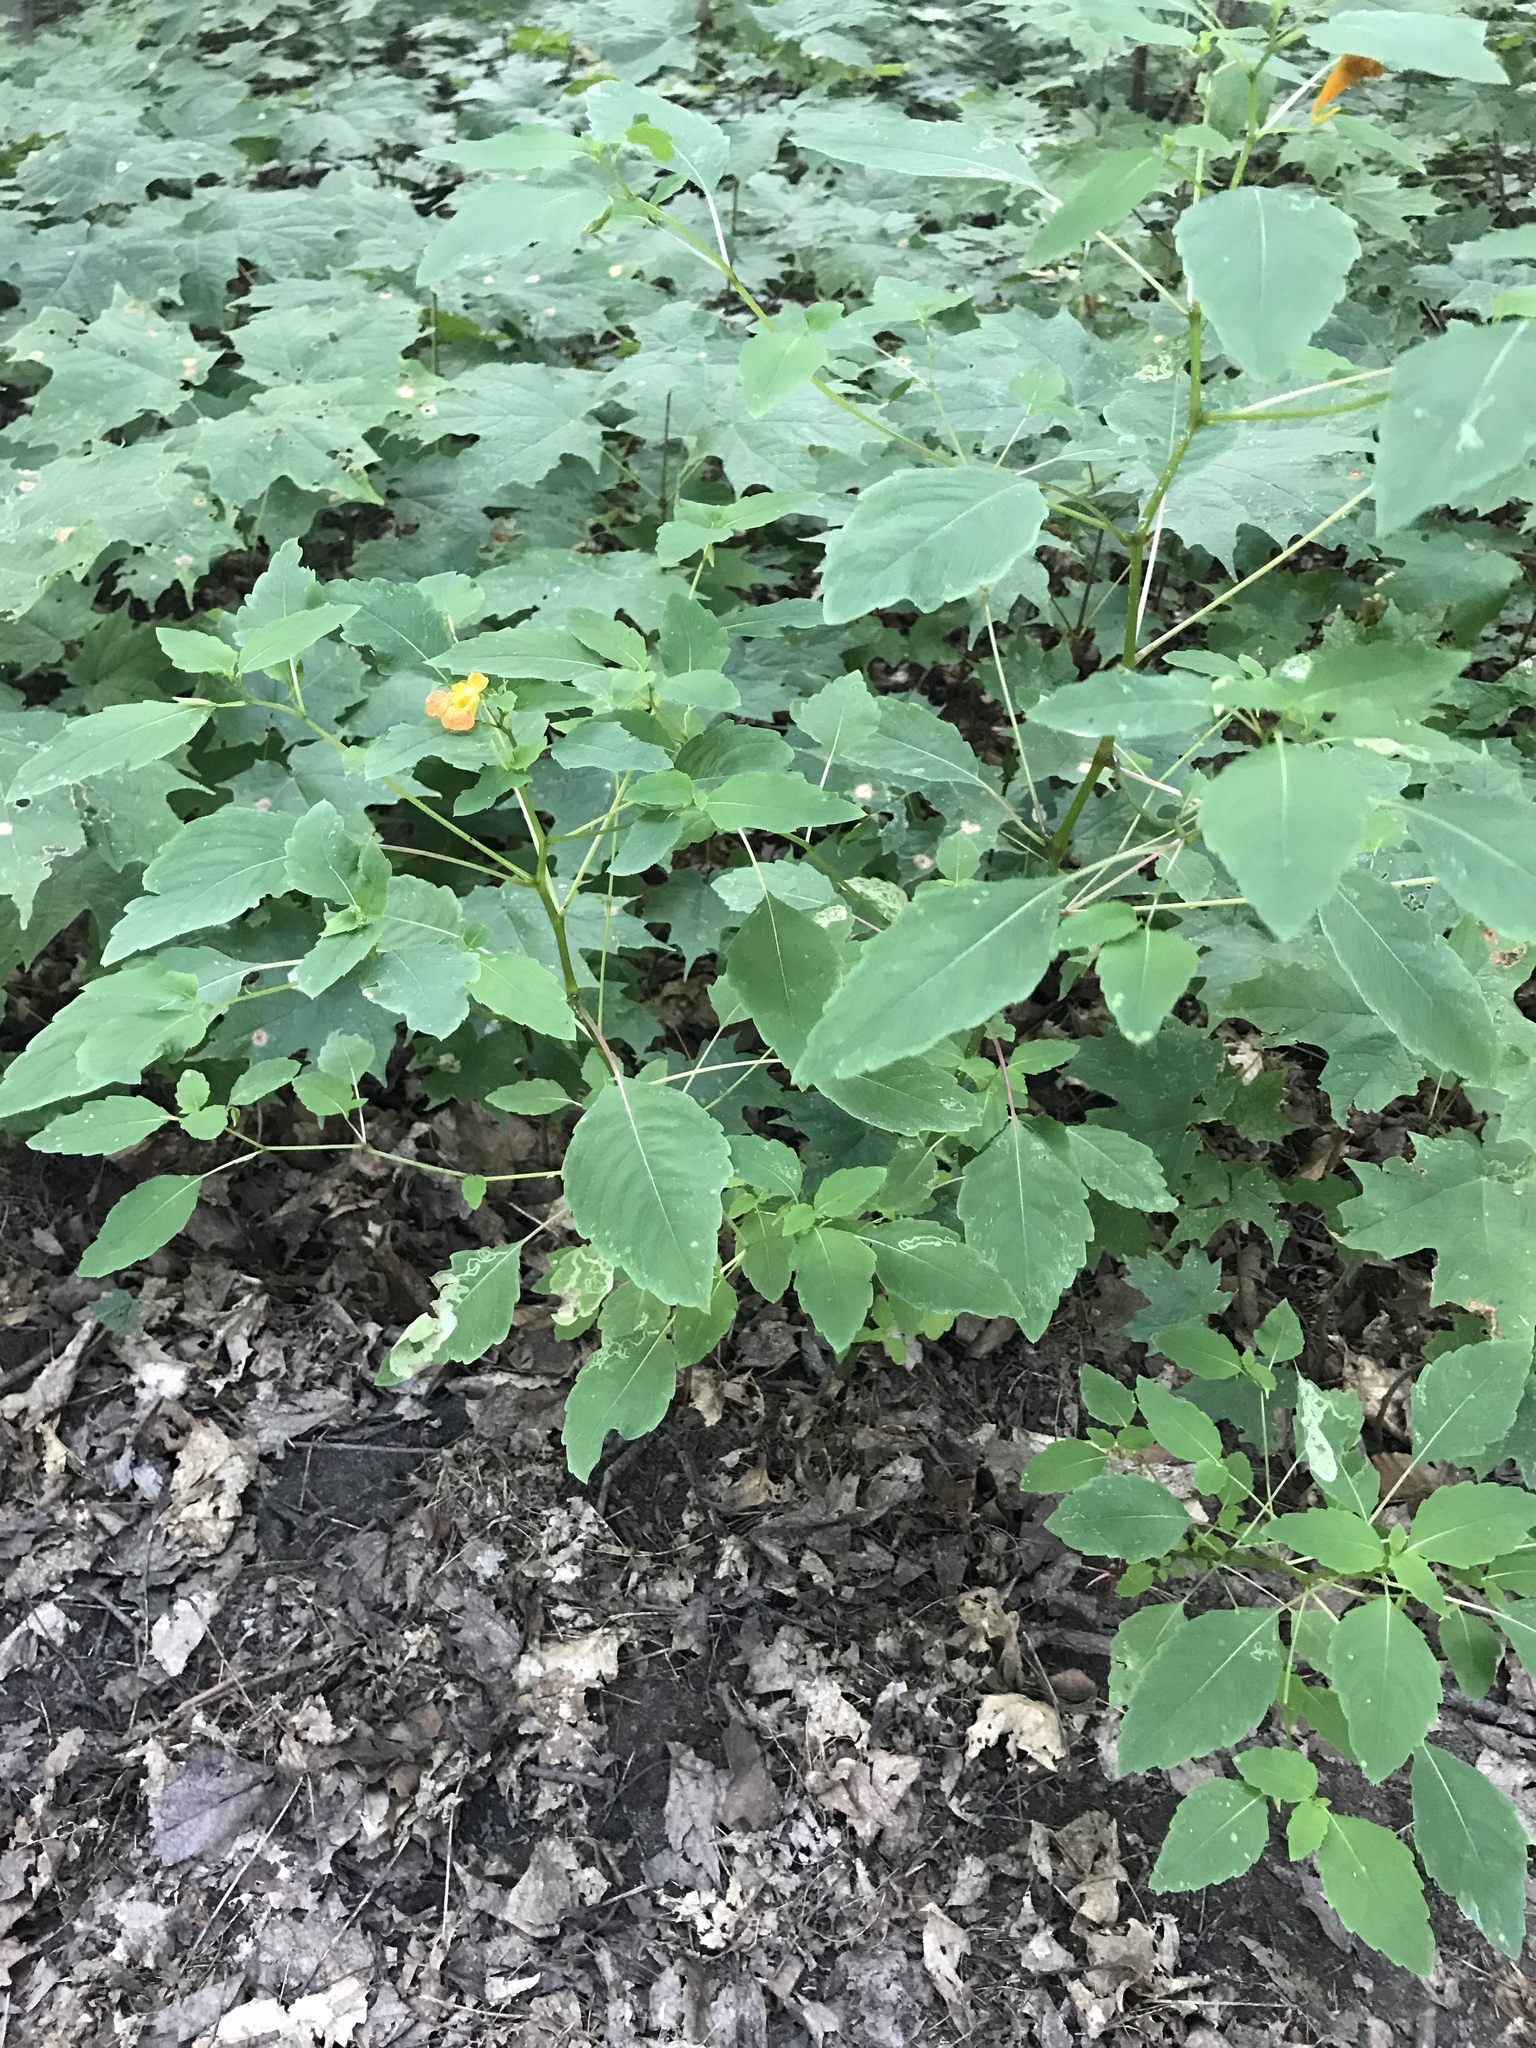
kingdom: Plantae
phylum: Tracheophyta
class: Magnoliopsida
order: Ericales
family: Balsaminaceae
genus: Impatiens
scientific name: Impatiens capensis
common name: Orange balsam
